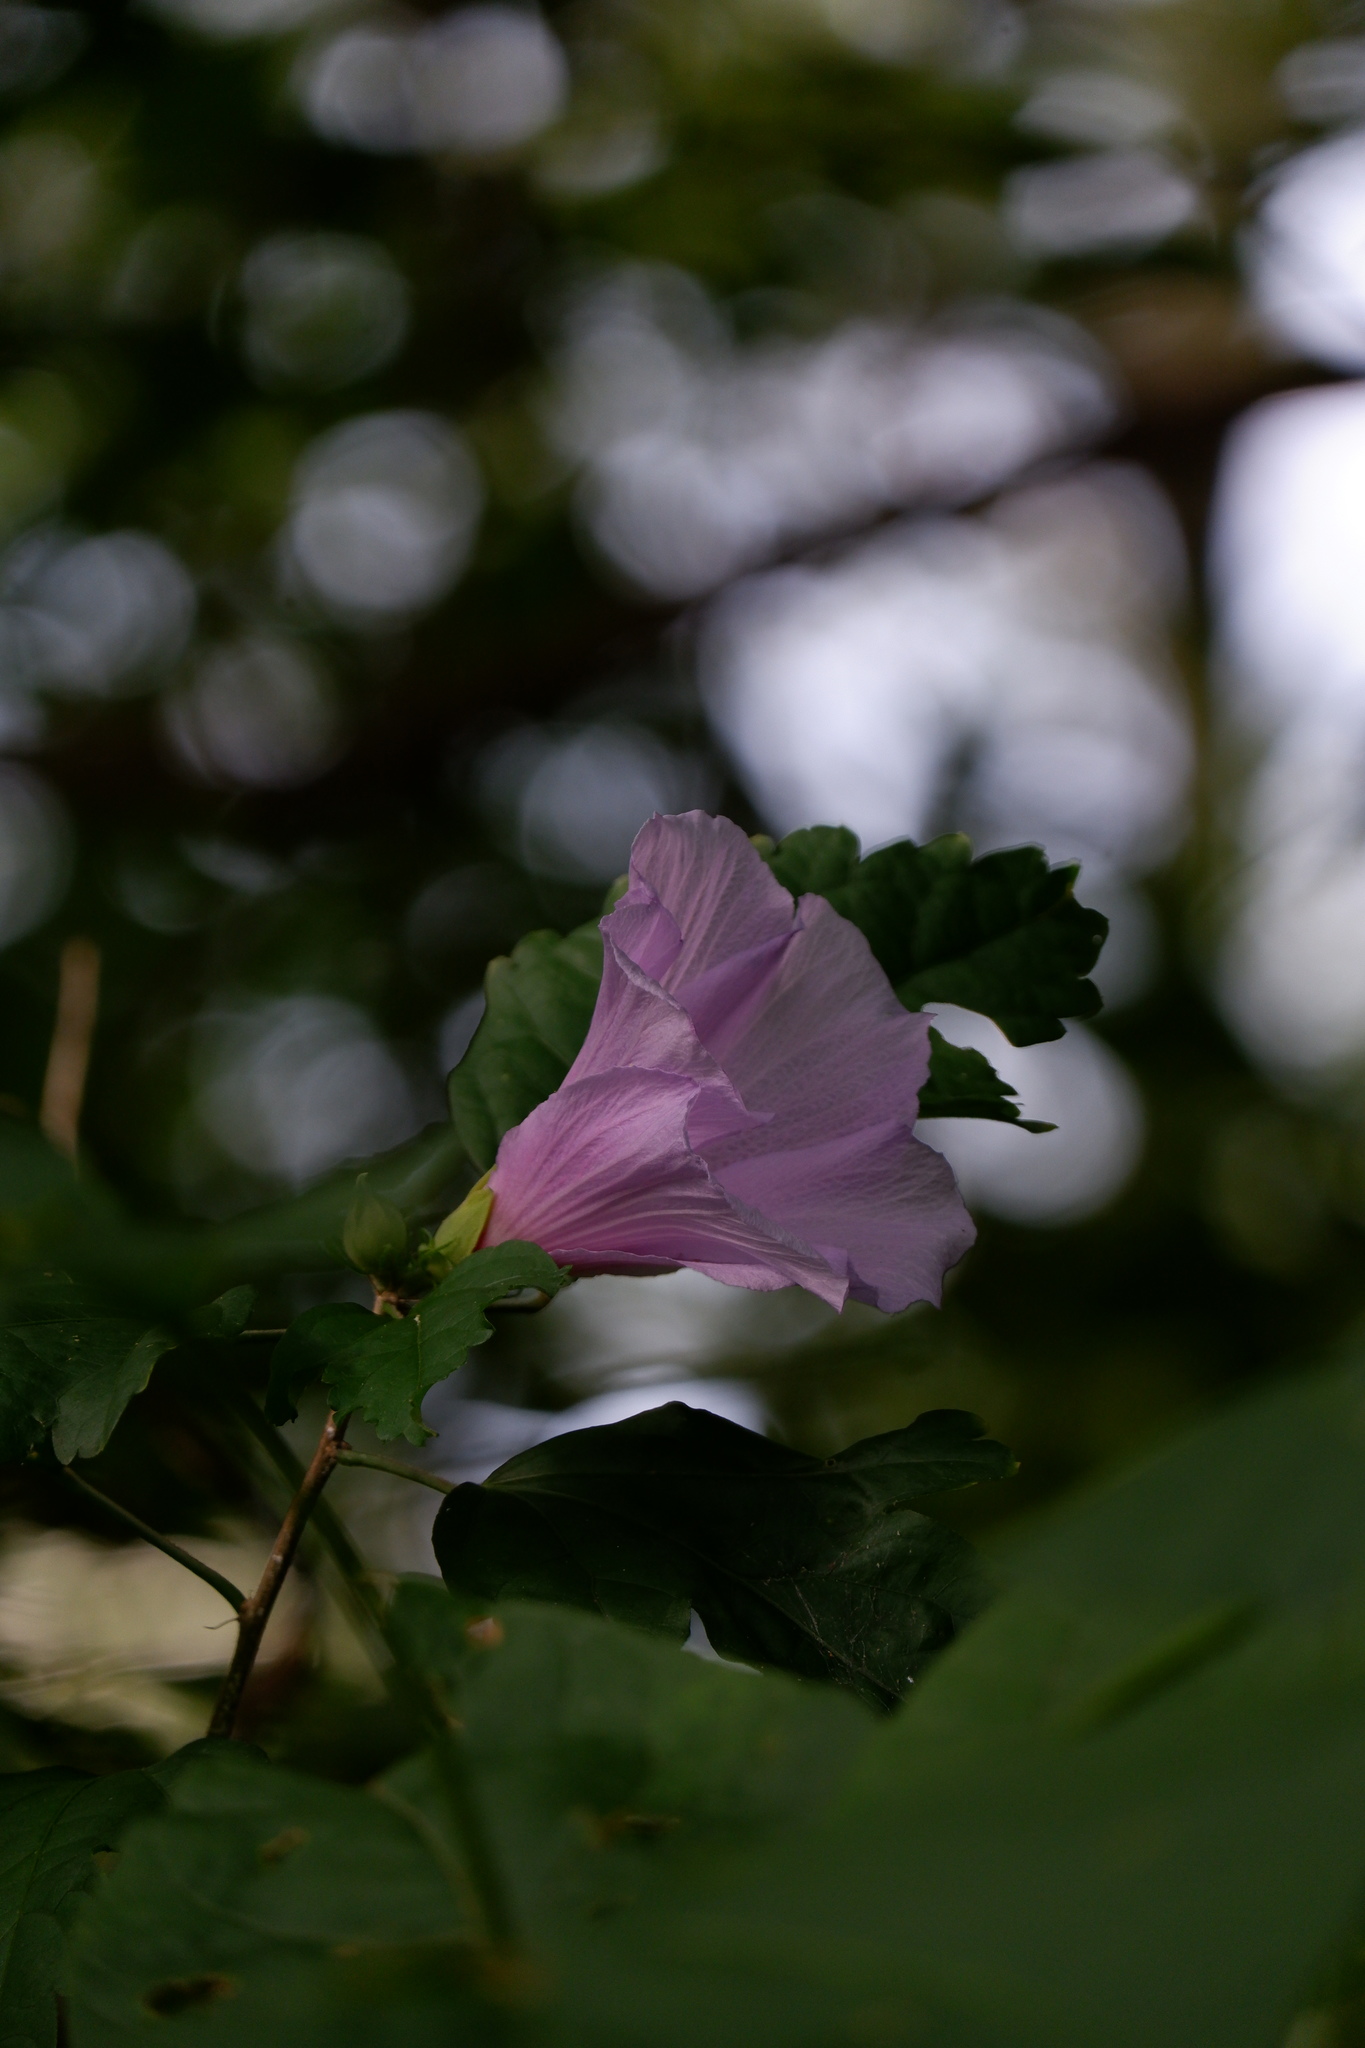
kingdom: Plantae
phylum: Tracheophyta
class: Magnoliopsida
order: Malvales
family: Malvaceae
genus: Hibiscus
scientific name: Hibiscus syriacus
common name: Syrian ketmia
